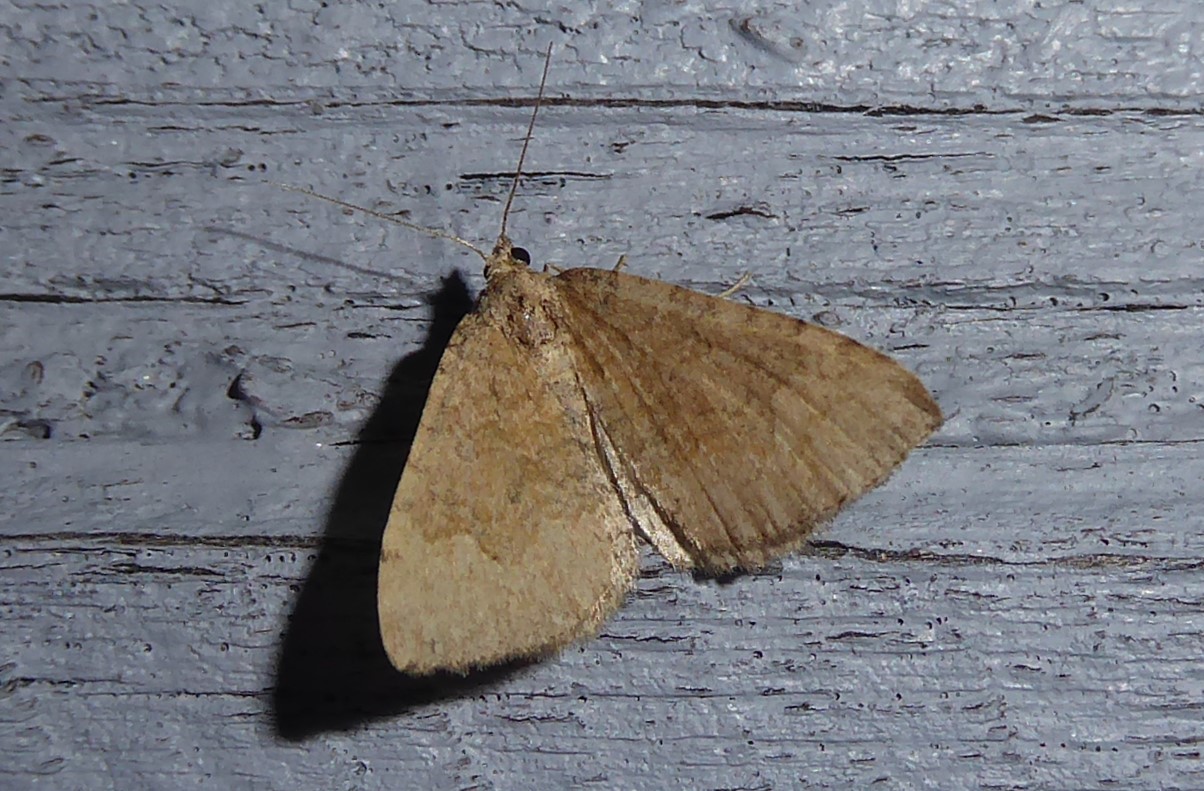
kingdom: Animalia
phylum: Arthropoda
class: Insecta
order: Lepidoptera
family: Geometridae
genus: Epyaxa
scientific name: Epyaxa rosearia
